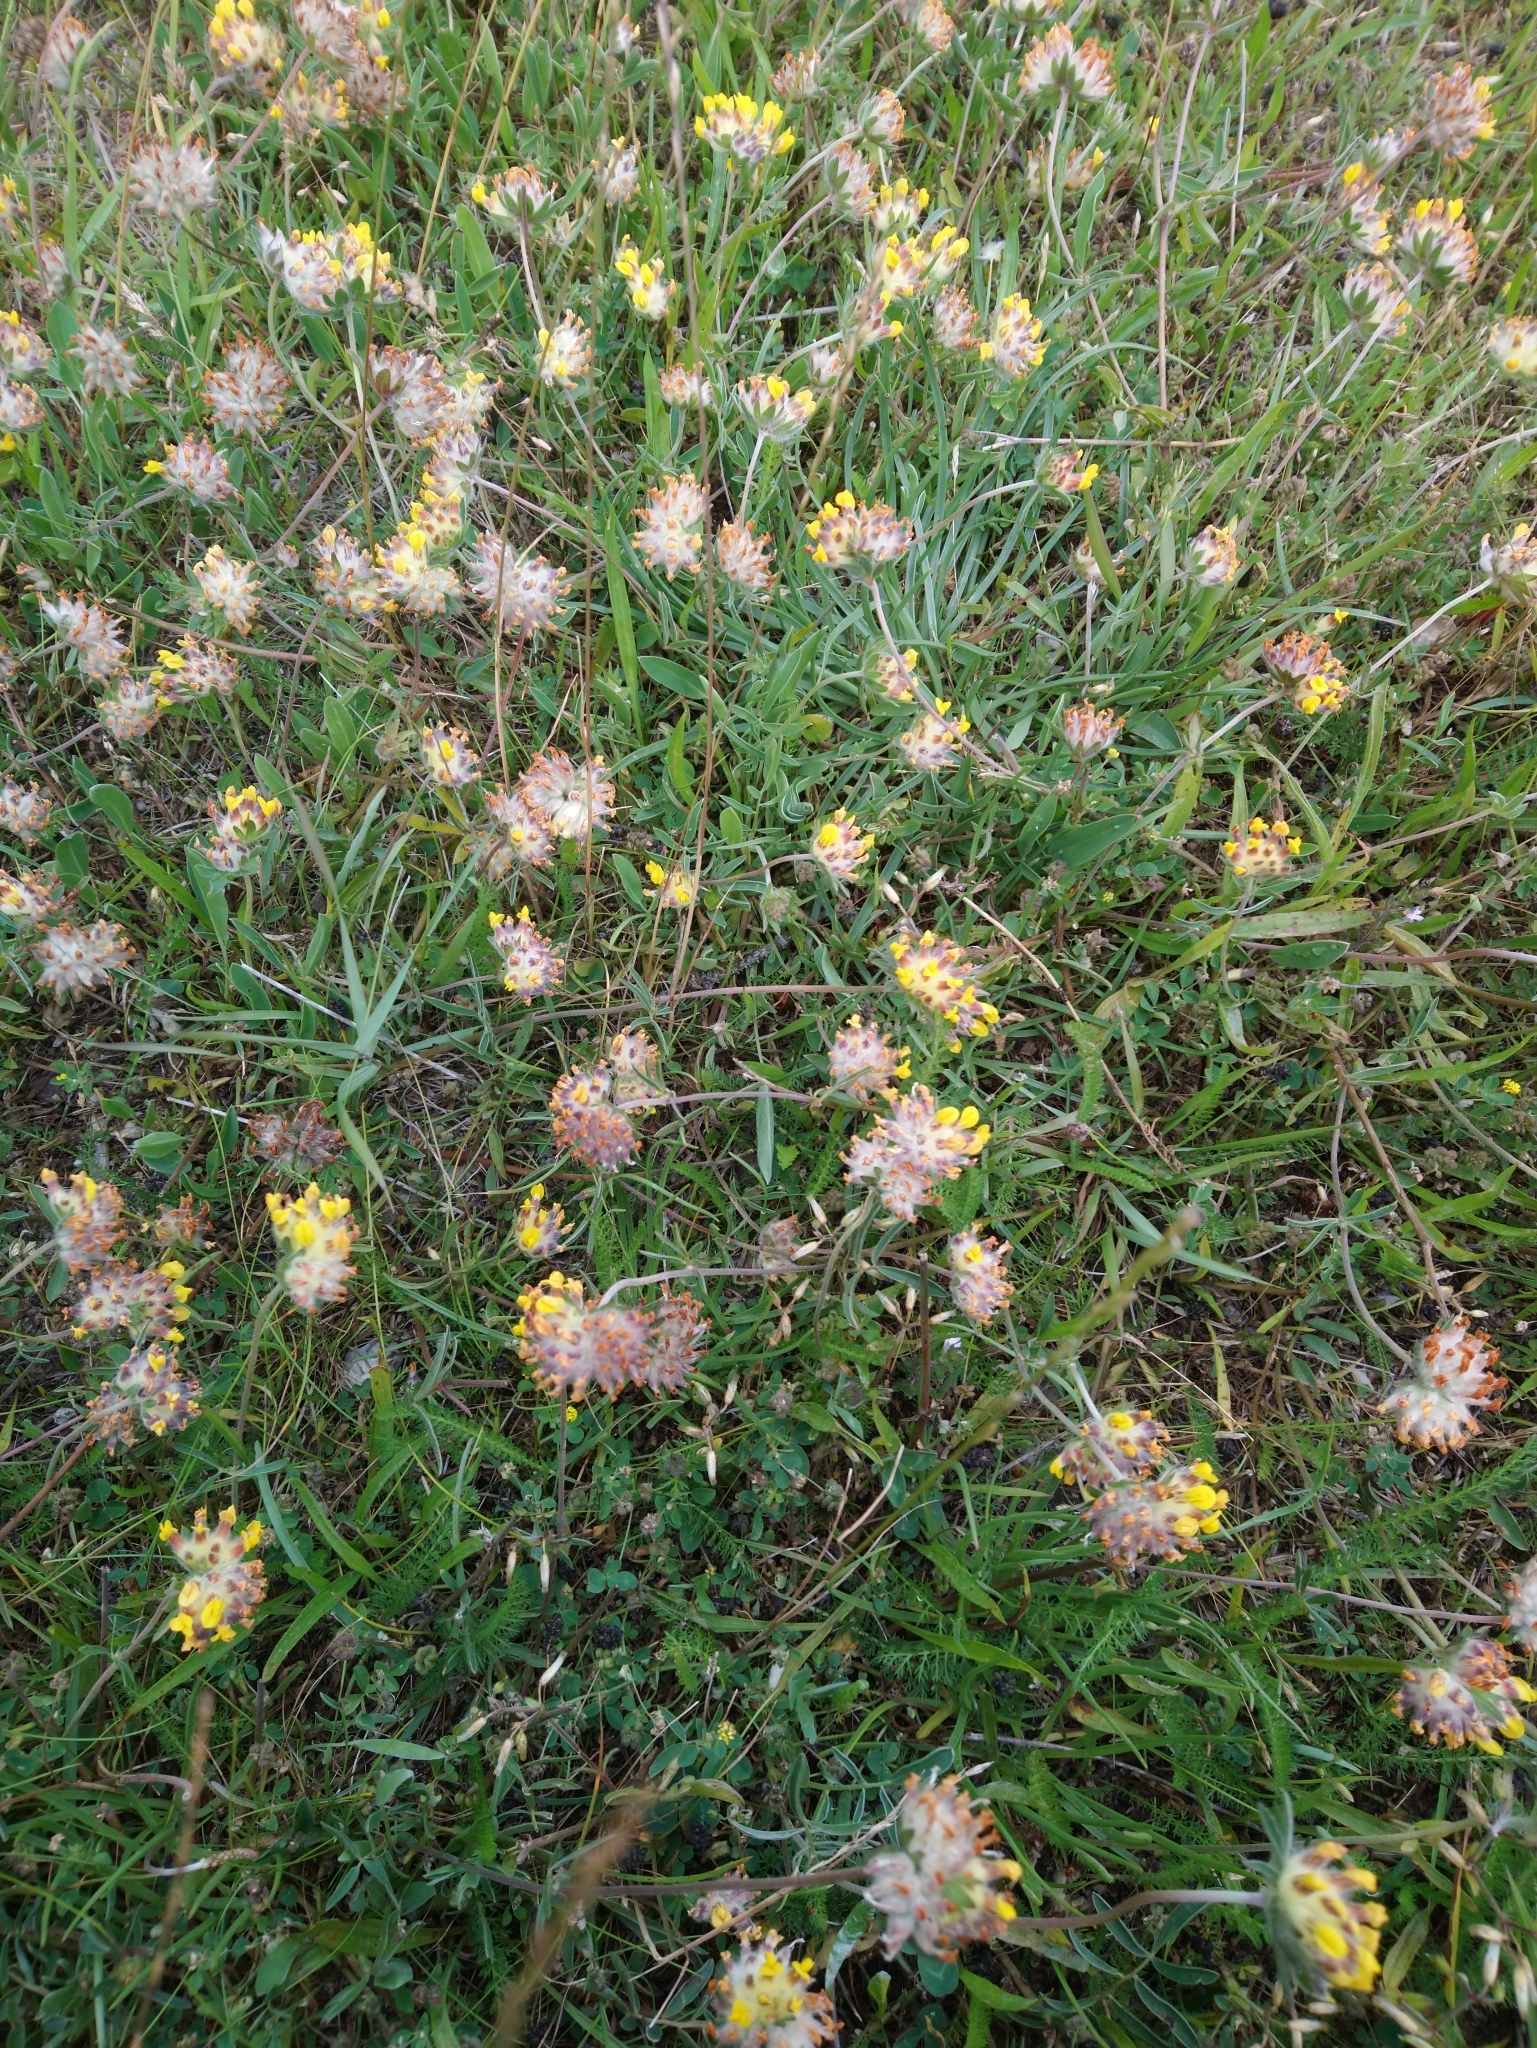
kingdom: Plantae
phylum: Tracheophyta
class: Magnoliopsida
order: Fabales
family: Fabaceae
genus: Anthyllis
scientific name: Anthyllis vulneraria
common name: Kidney vetch
